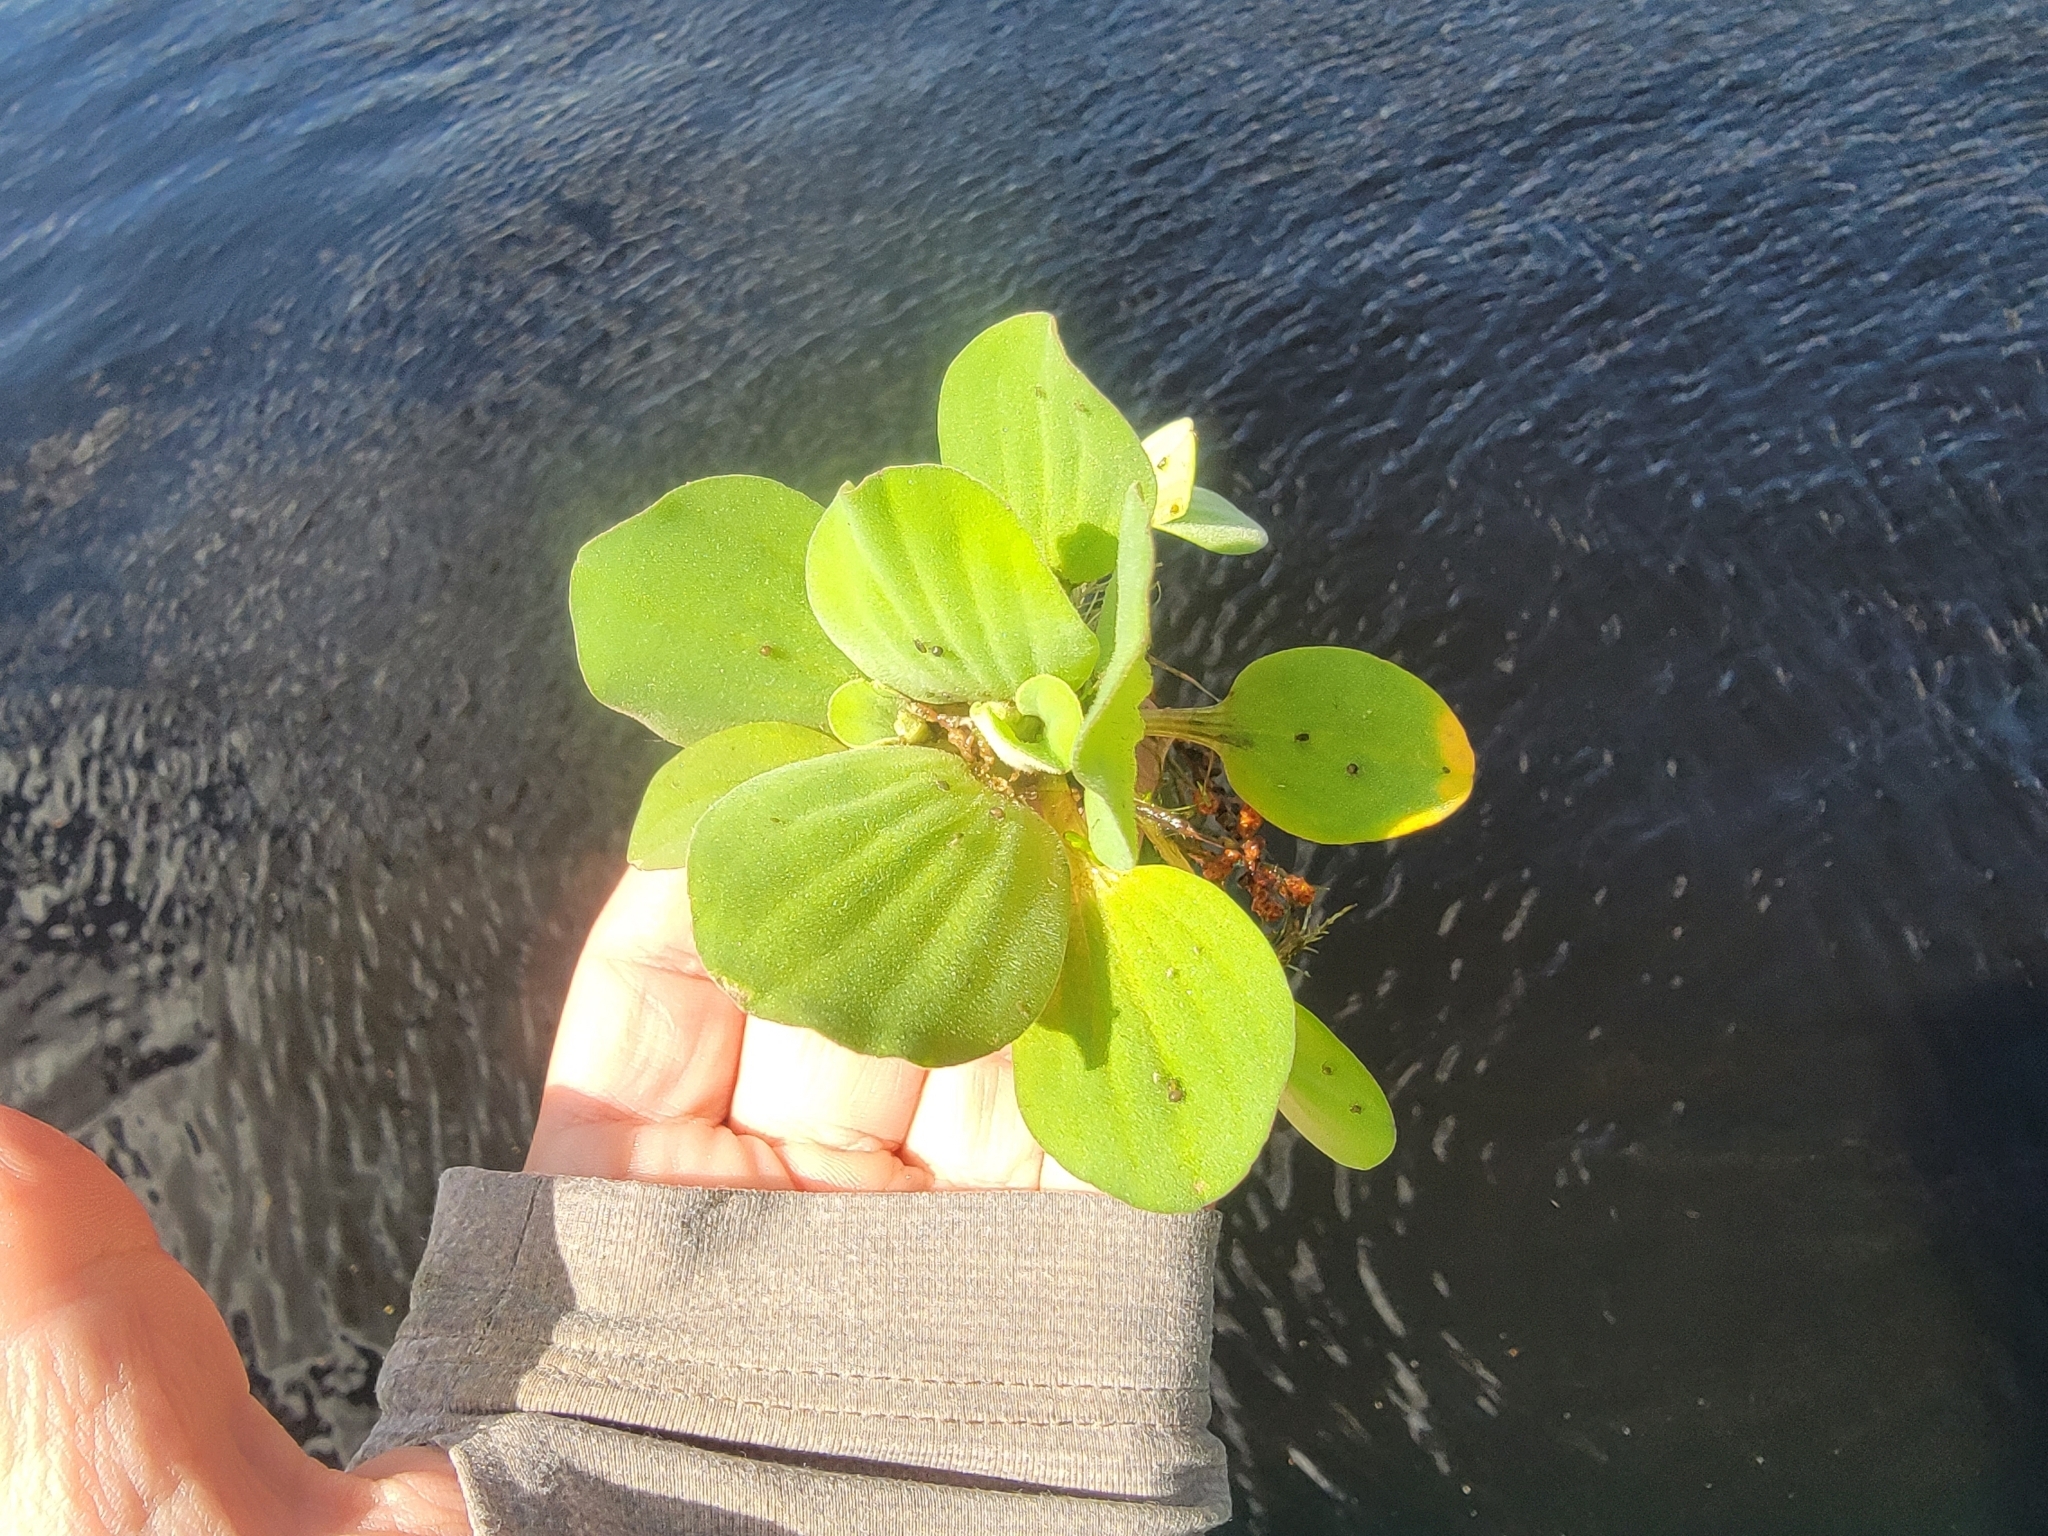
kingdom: Plantae
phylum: Tracheophyta
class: Liliopsida
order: Alismatales
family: Araceae
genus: Pistia
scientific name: Pistia stratiotes
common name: Water lettuce
